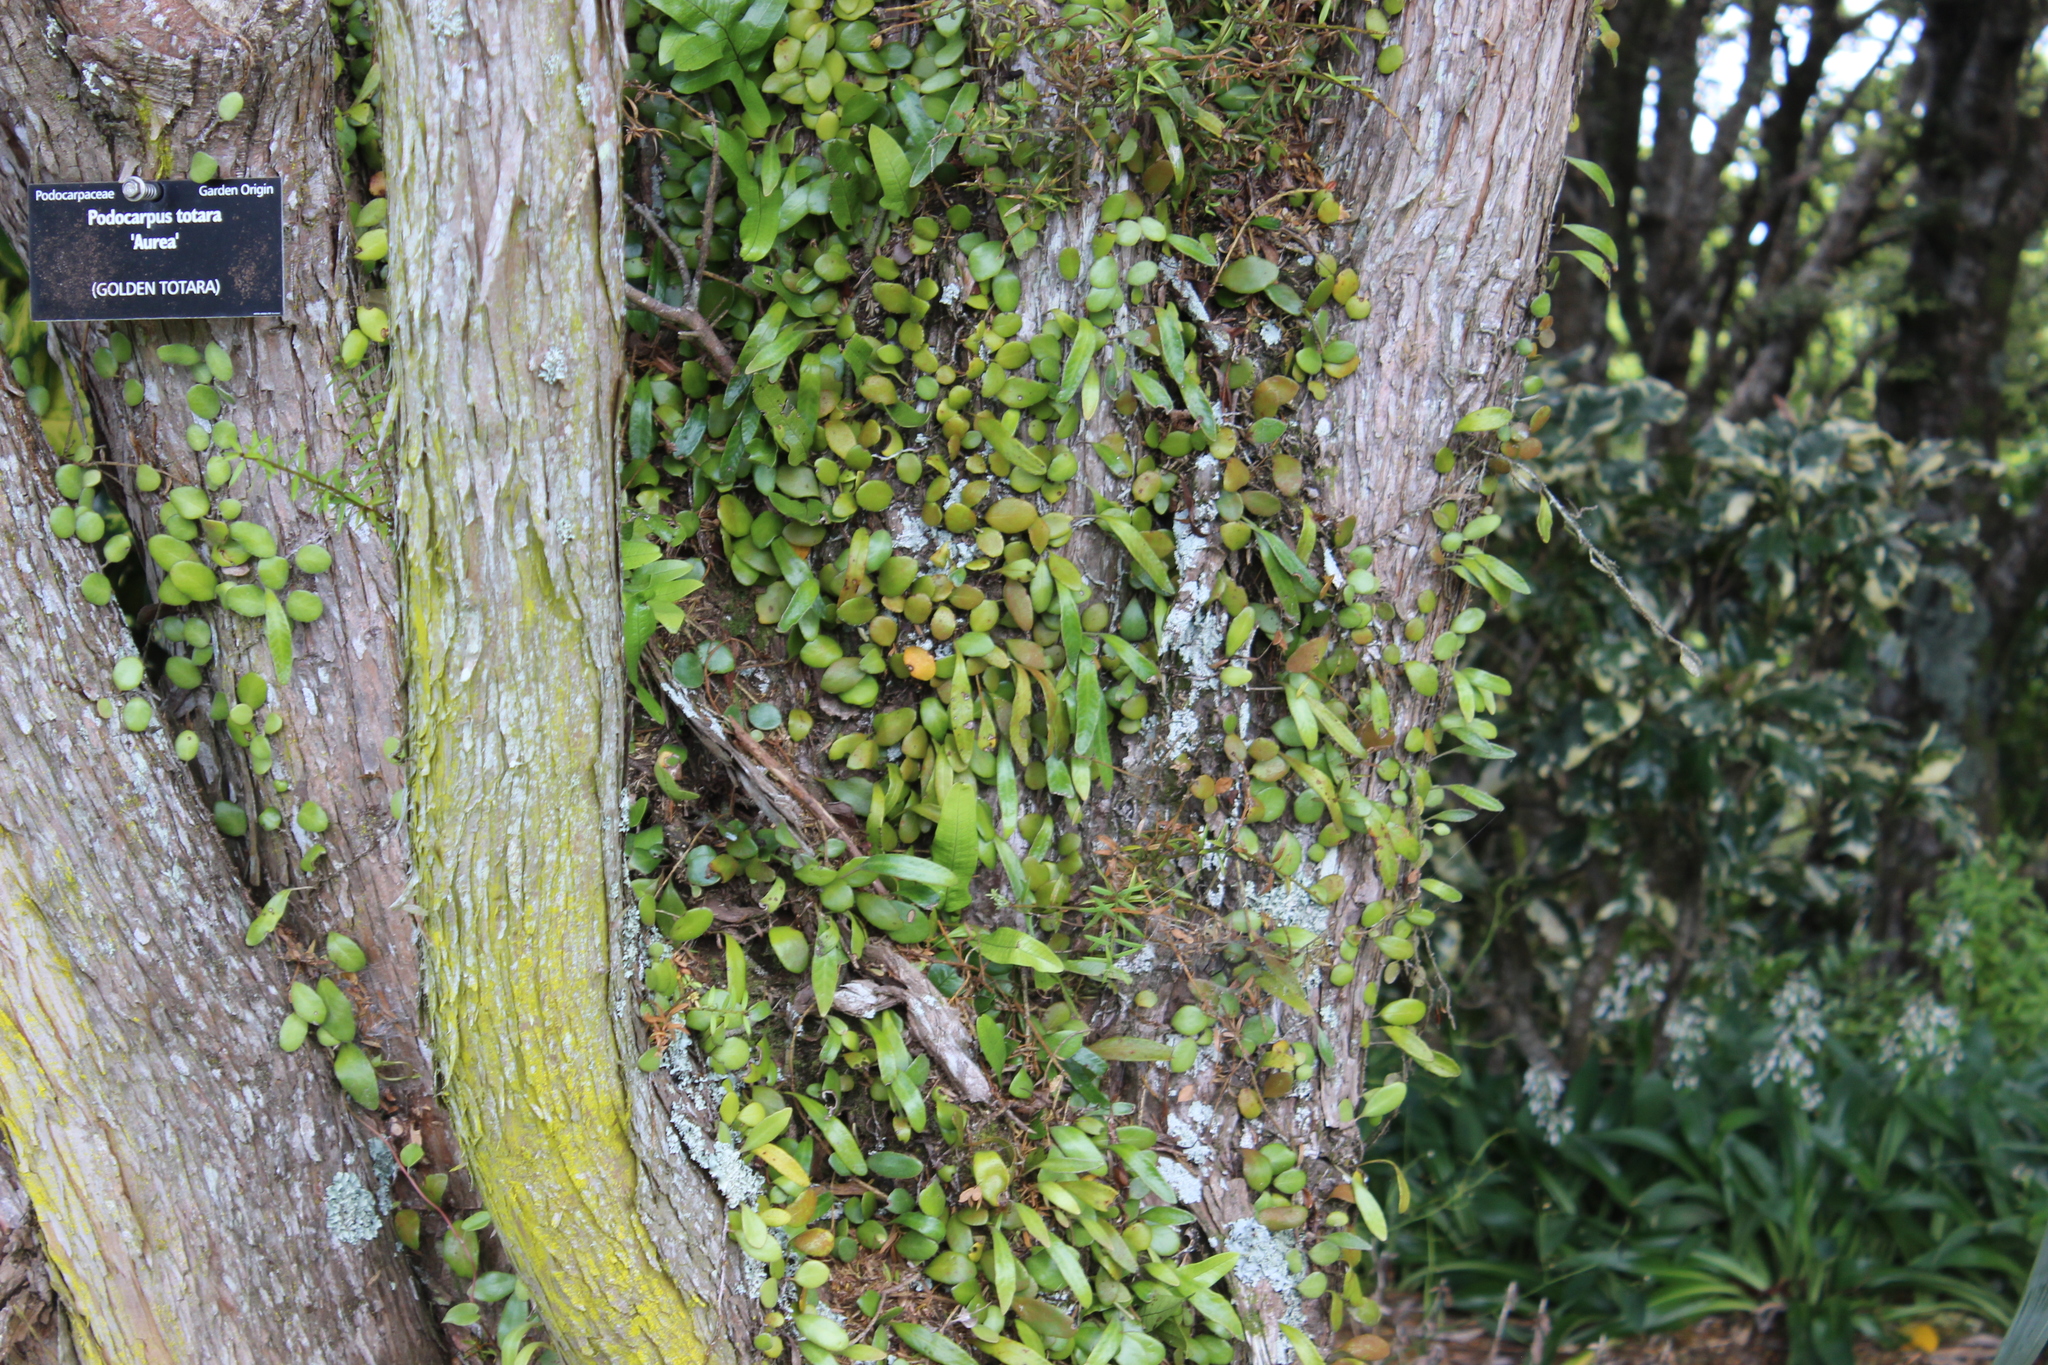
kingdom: Plantae
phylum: Tracheophyta
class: Polypodiopsida
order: Polypodiales
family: Polypodiaceae
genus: Pyrrosia
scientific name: Pyrrosia eleagnifolia
